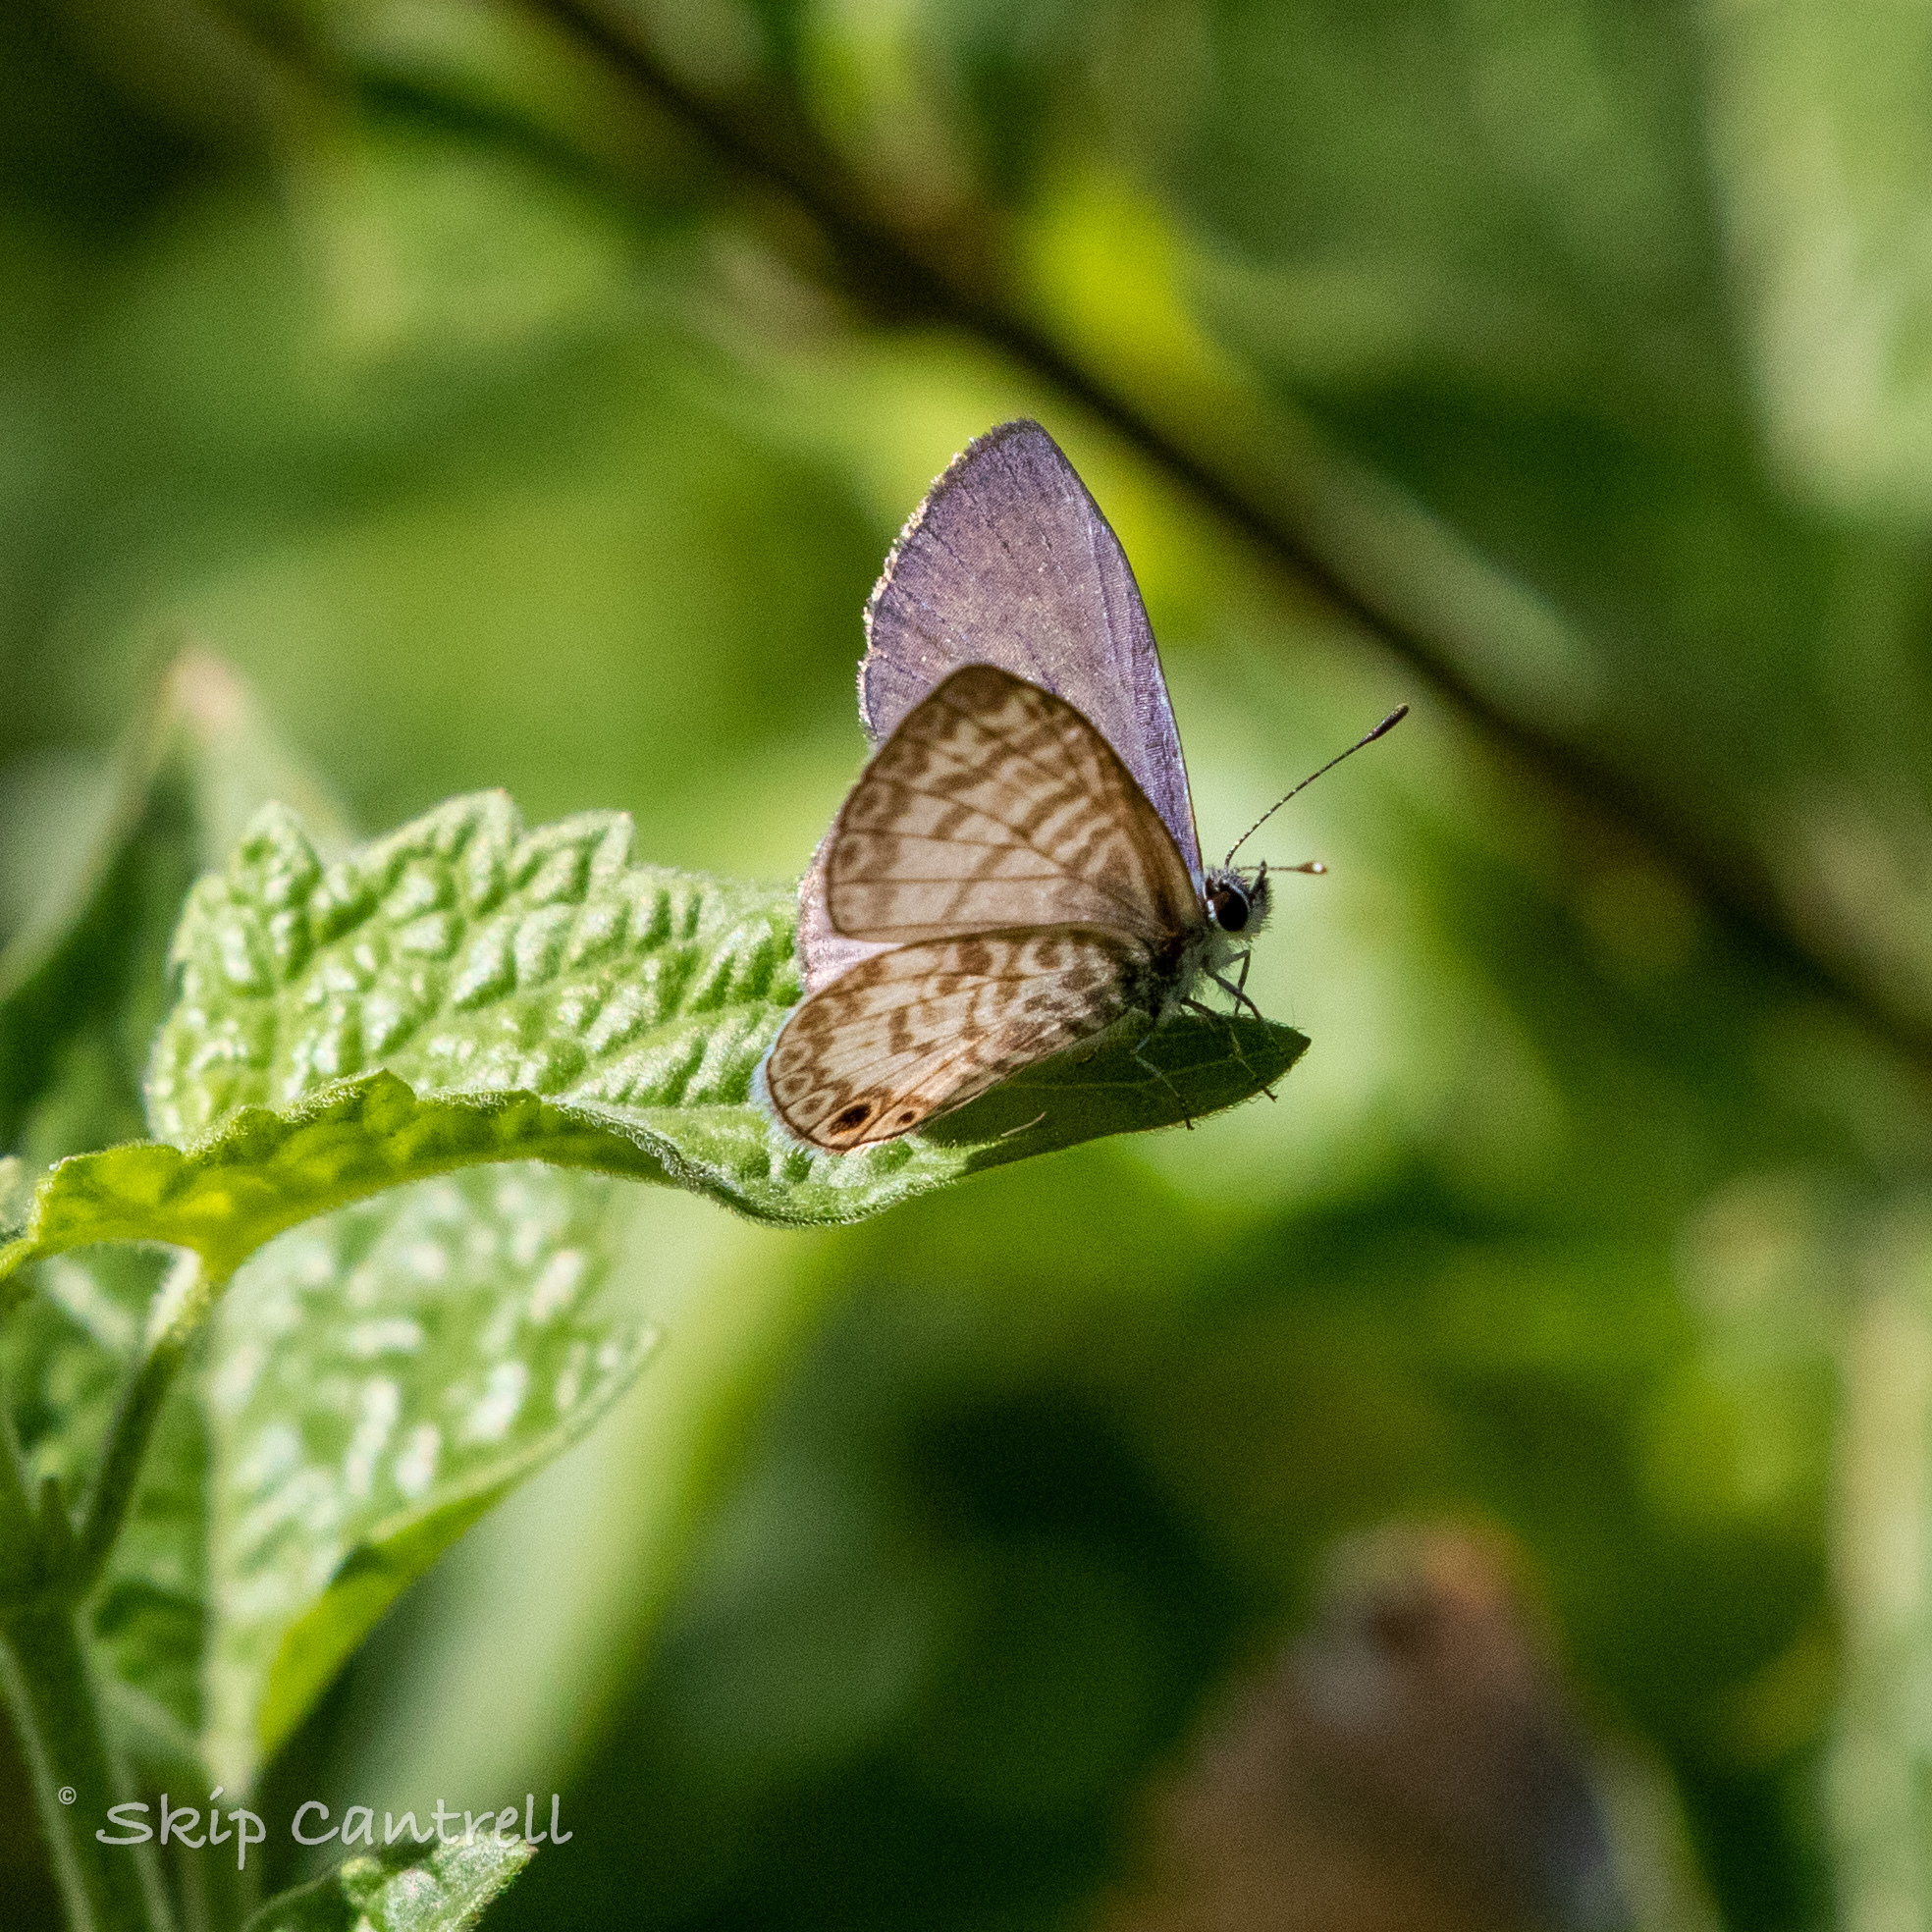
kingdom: Animalia
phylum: Arthropoda
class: Insecta
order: Lepidoptera
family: Lycaenidae
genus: Leptotes
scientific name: Leptotes cassius
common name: Cassius blue
